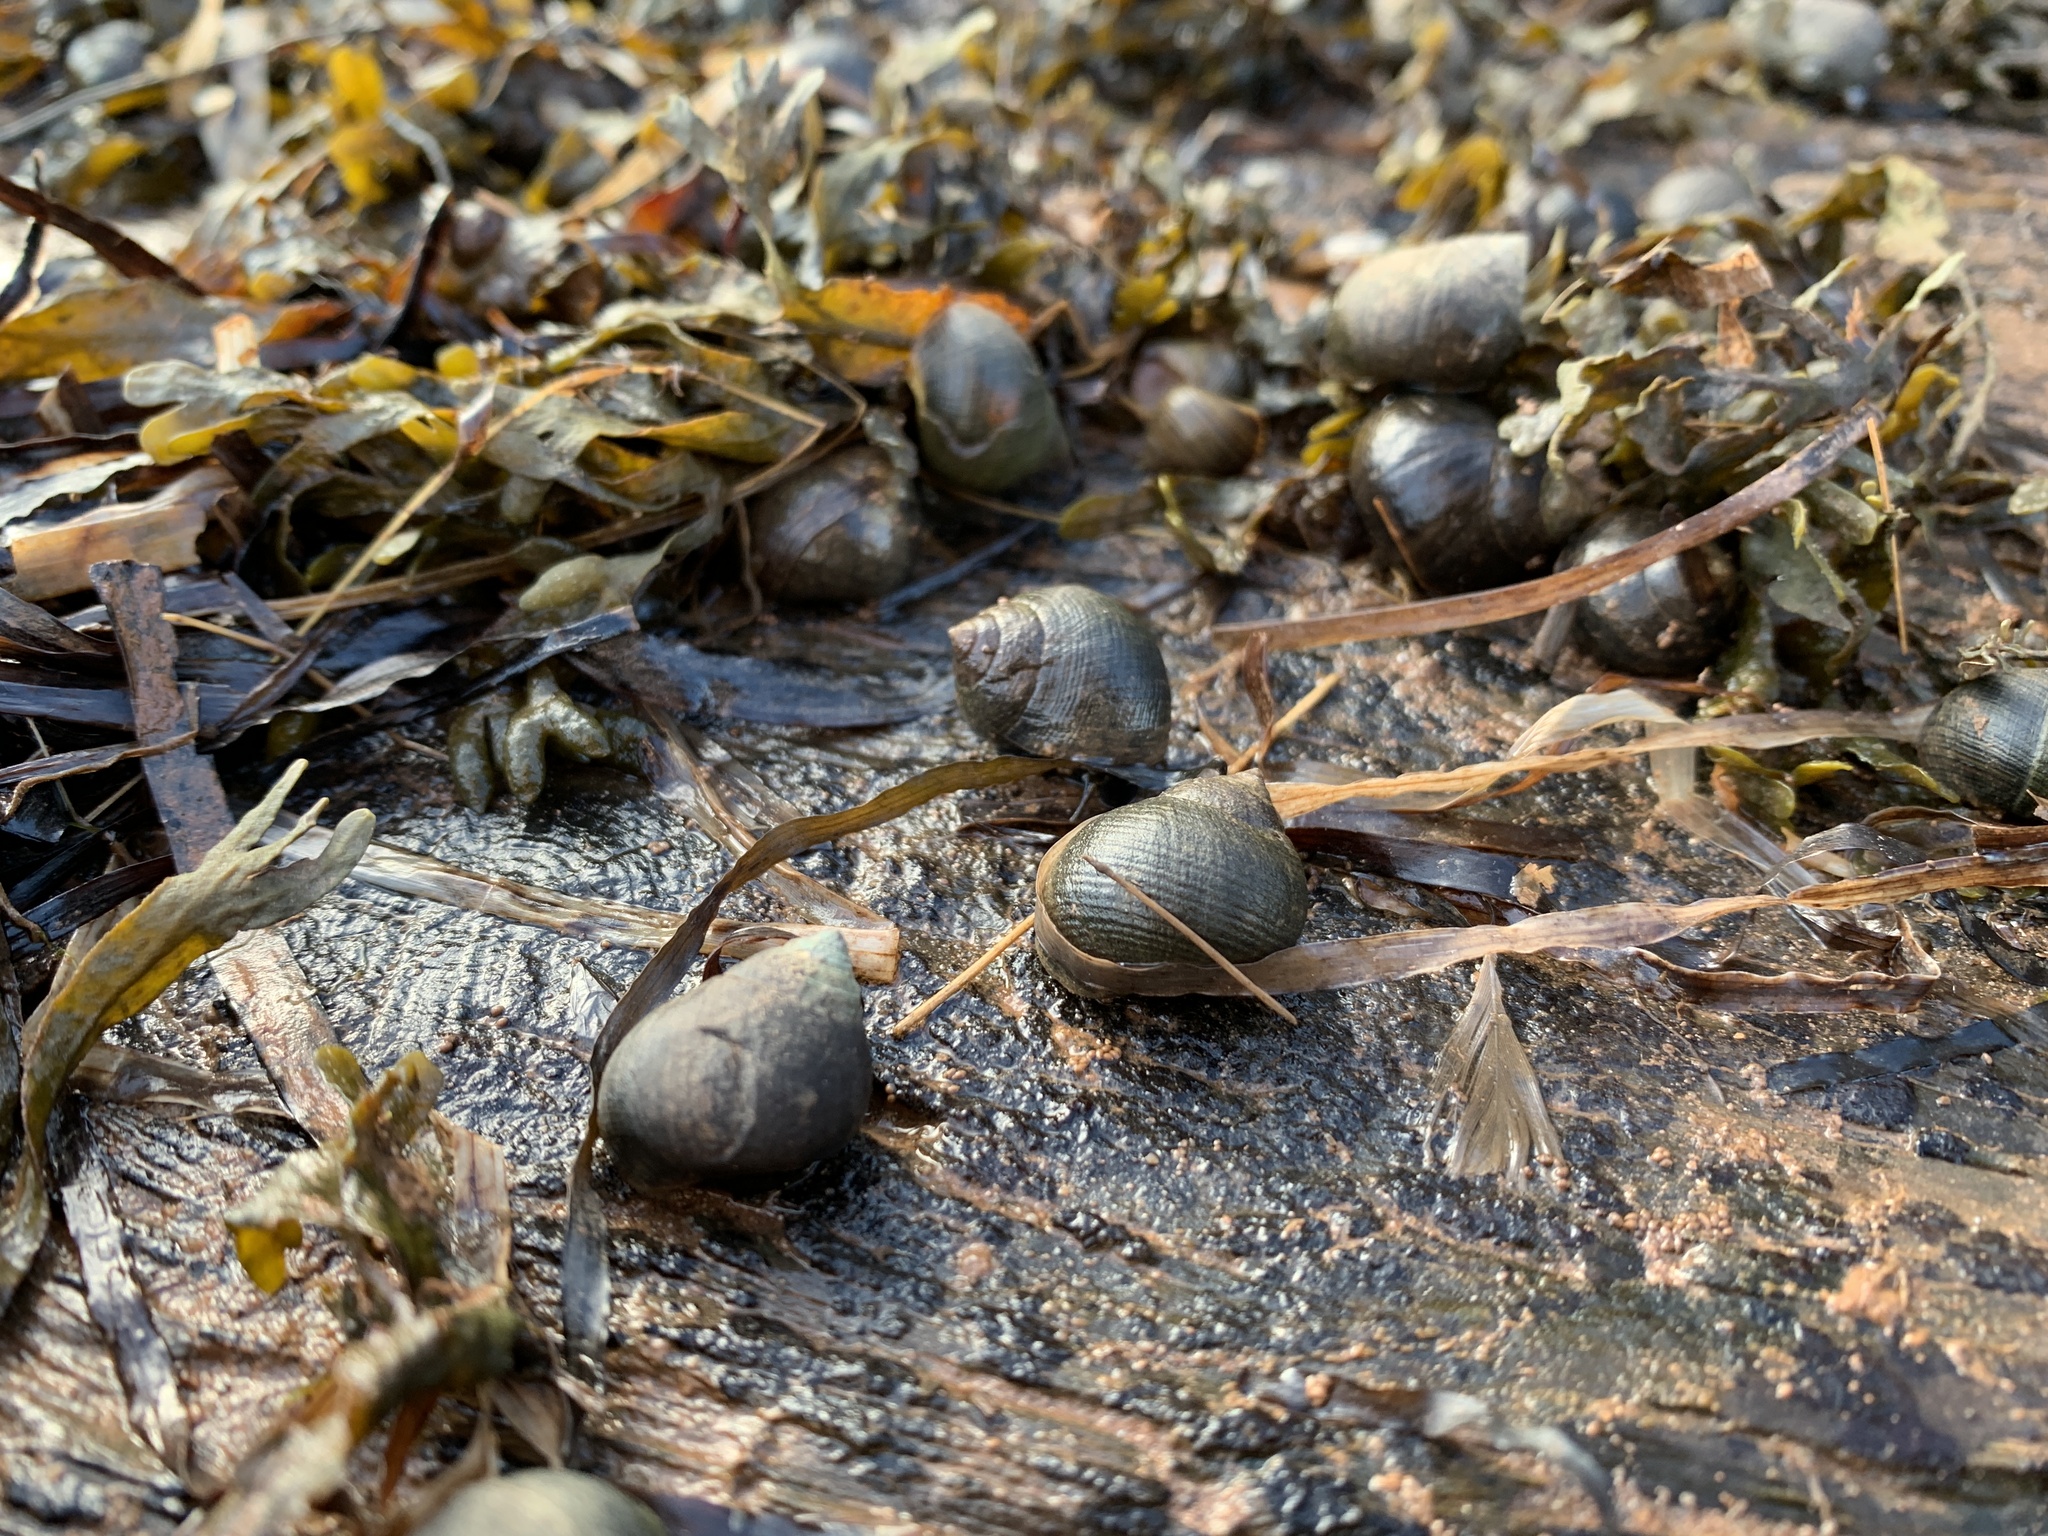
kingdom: Animalia
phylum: Mollusca
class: Gastropoda
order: Littorinimorpha
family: Littorinidae
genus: Littorina
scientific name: Littorina littorea
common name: Common periwinkle
